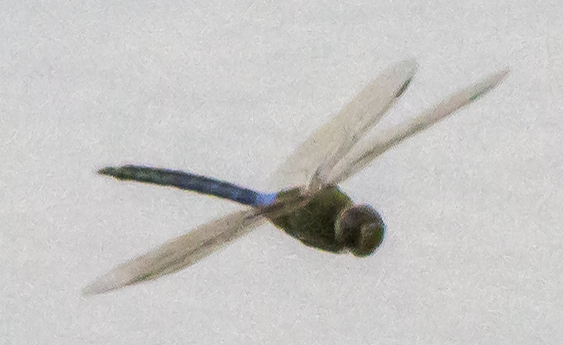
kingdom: Animalia
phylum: Arthropoda
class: Insecta
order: Odonata
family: Aeshnidae
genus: Anax
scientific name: Anax junius
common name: Common green darner
